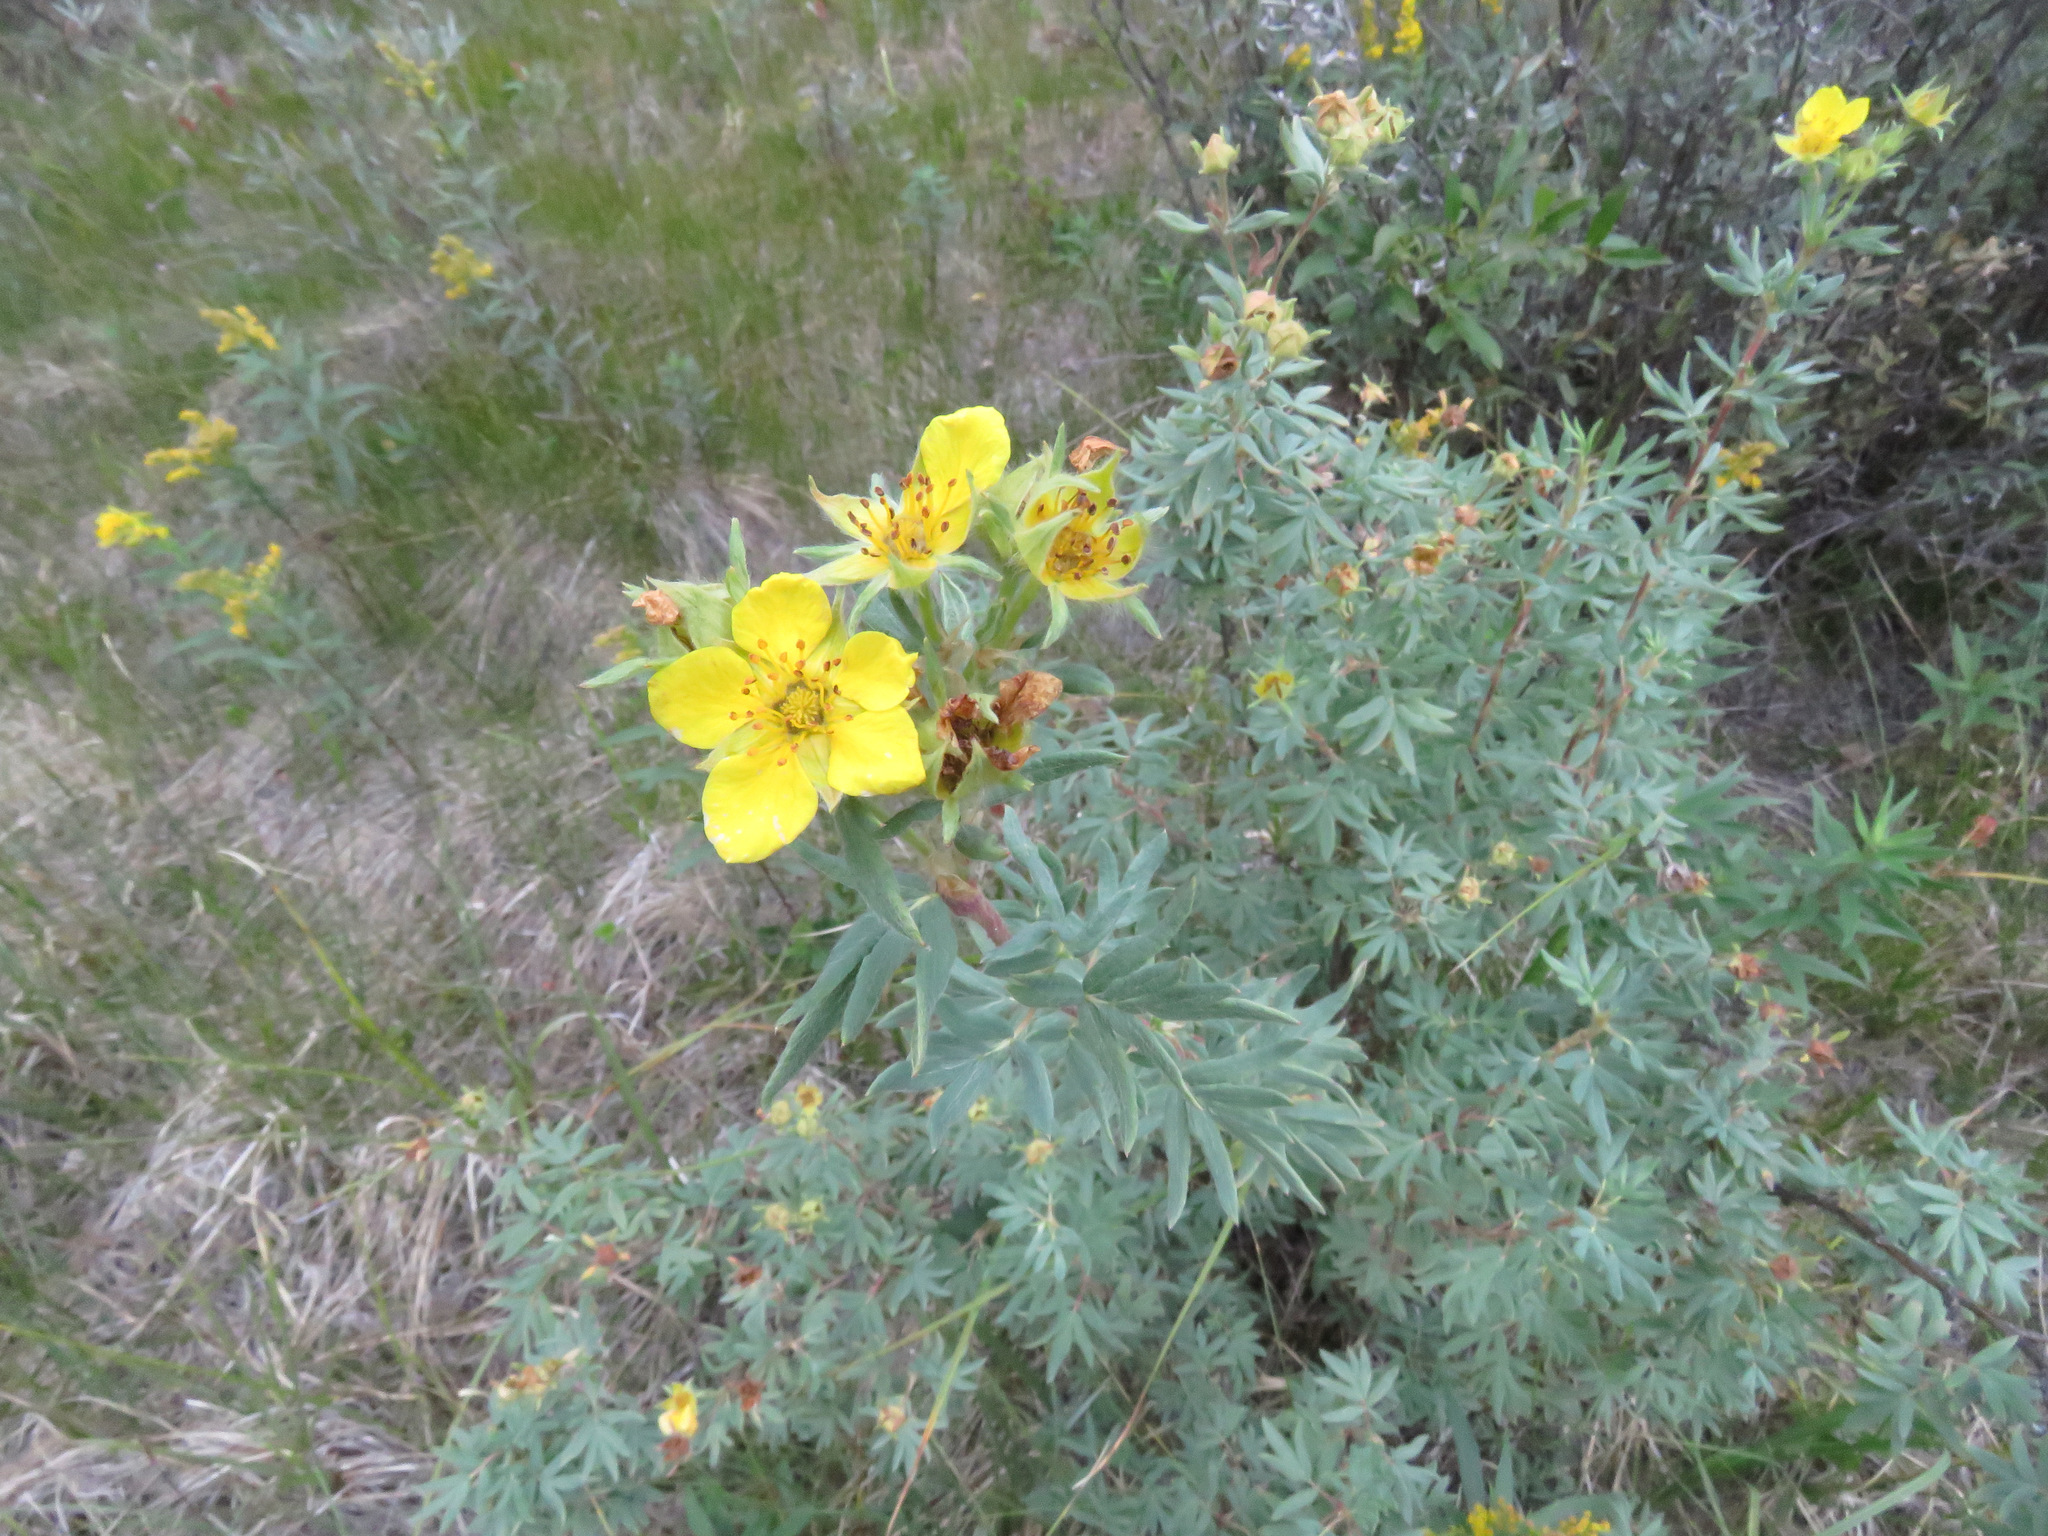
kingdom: Plantae
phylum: Tracheophyta
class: Magnoliopsida
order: Rosales
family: Rosaceae
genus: Dasiphora
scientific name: Dasiphora fruticosa
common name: Shrubby cinquefoil
